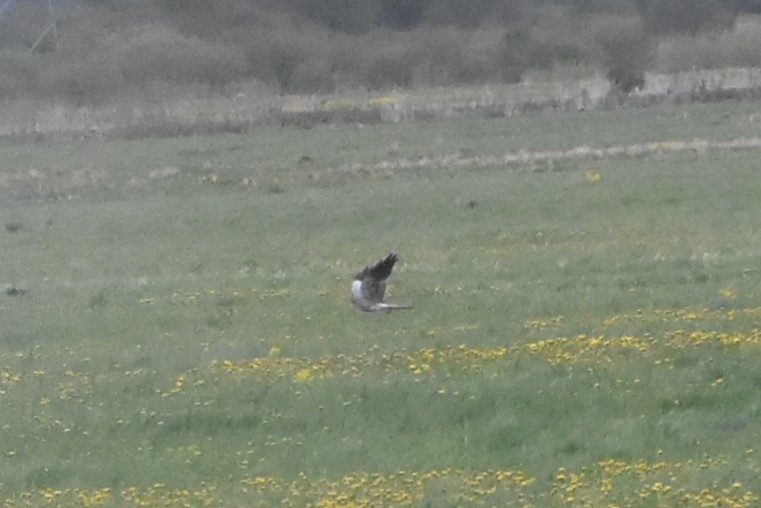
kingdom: Animalia
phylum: Chordata
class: Aves
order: Accipitriformes
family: Accipitridae
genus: Circus
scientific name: Circus pygargus
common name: Montagu's harrier
